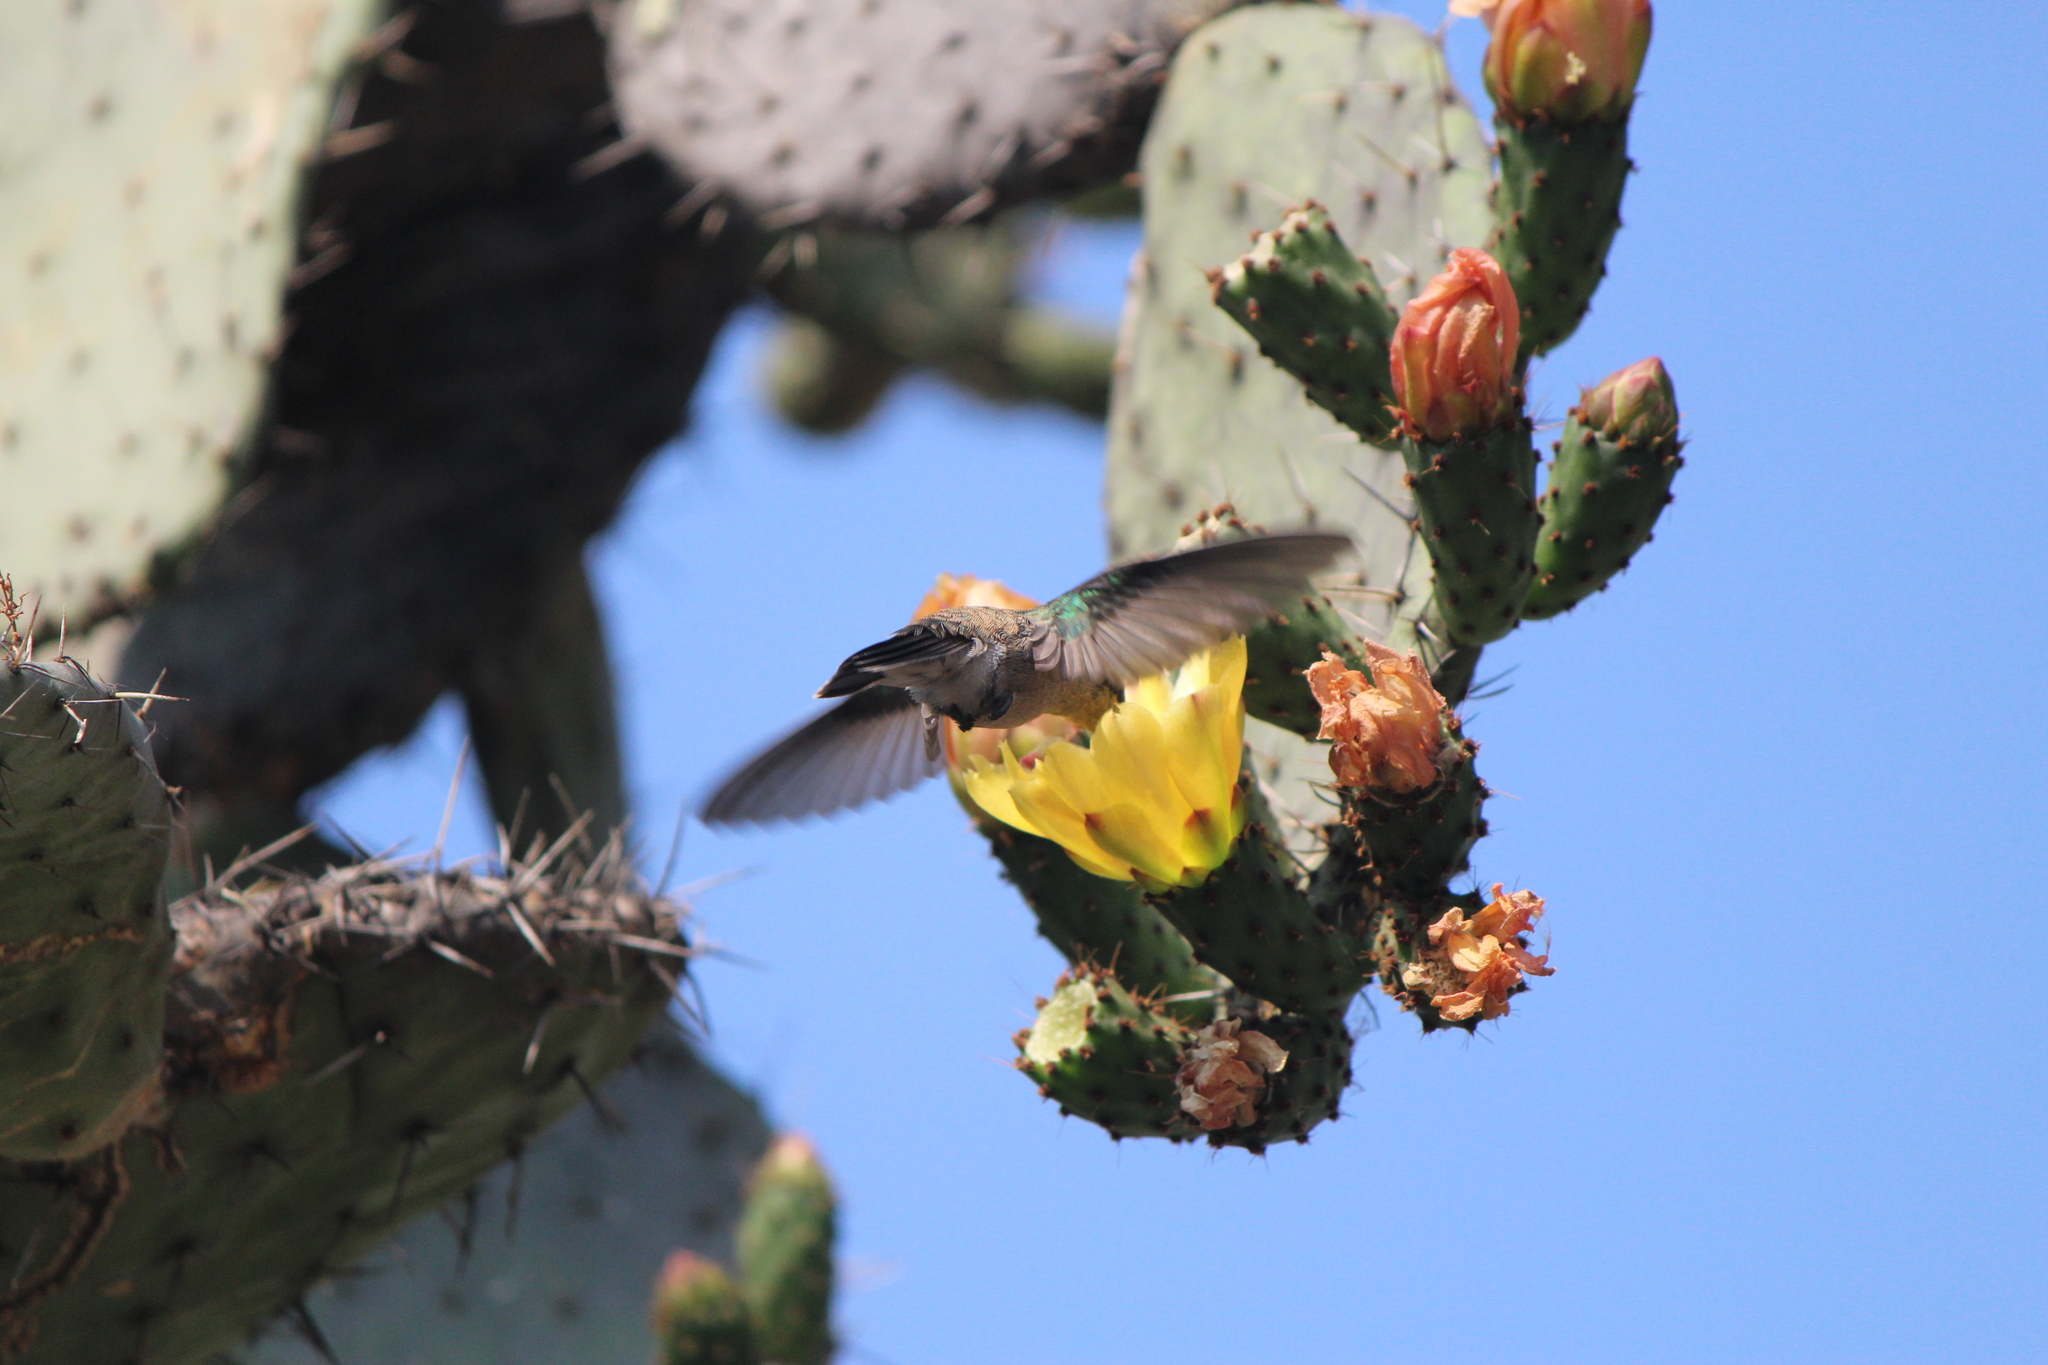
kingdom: Animalia
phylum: Chordata
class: Aves
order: Apodiformes
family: Trochilidae
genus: Cynanthus
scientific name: Cynanthus latirostris
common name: Broad-billed hummingbird
